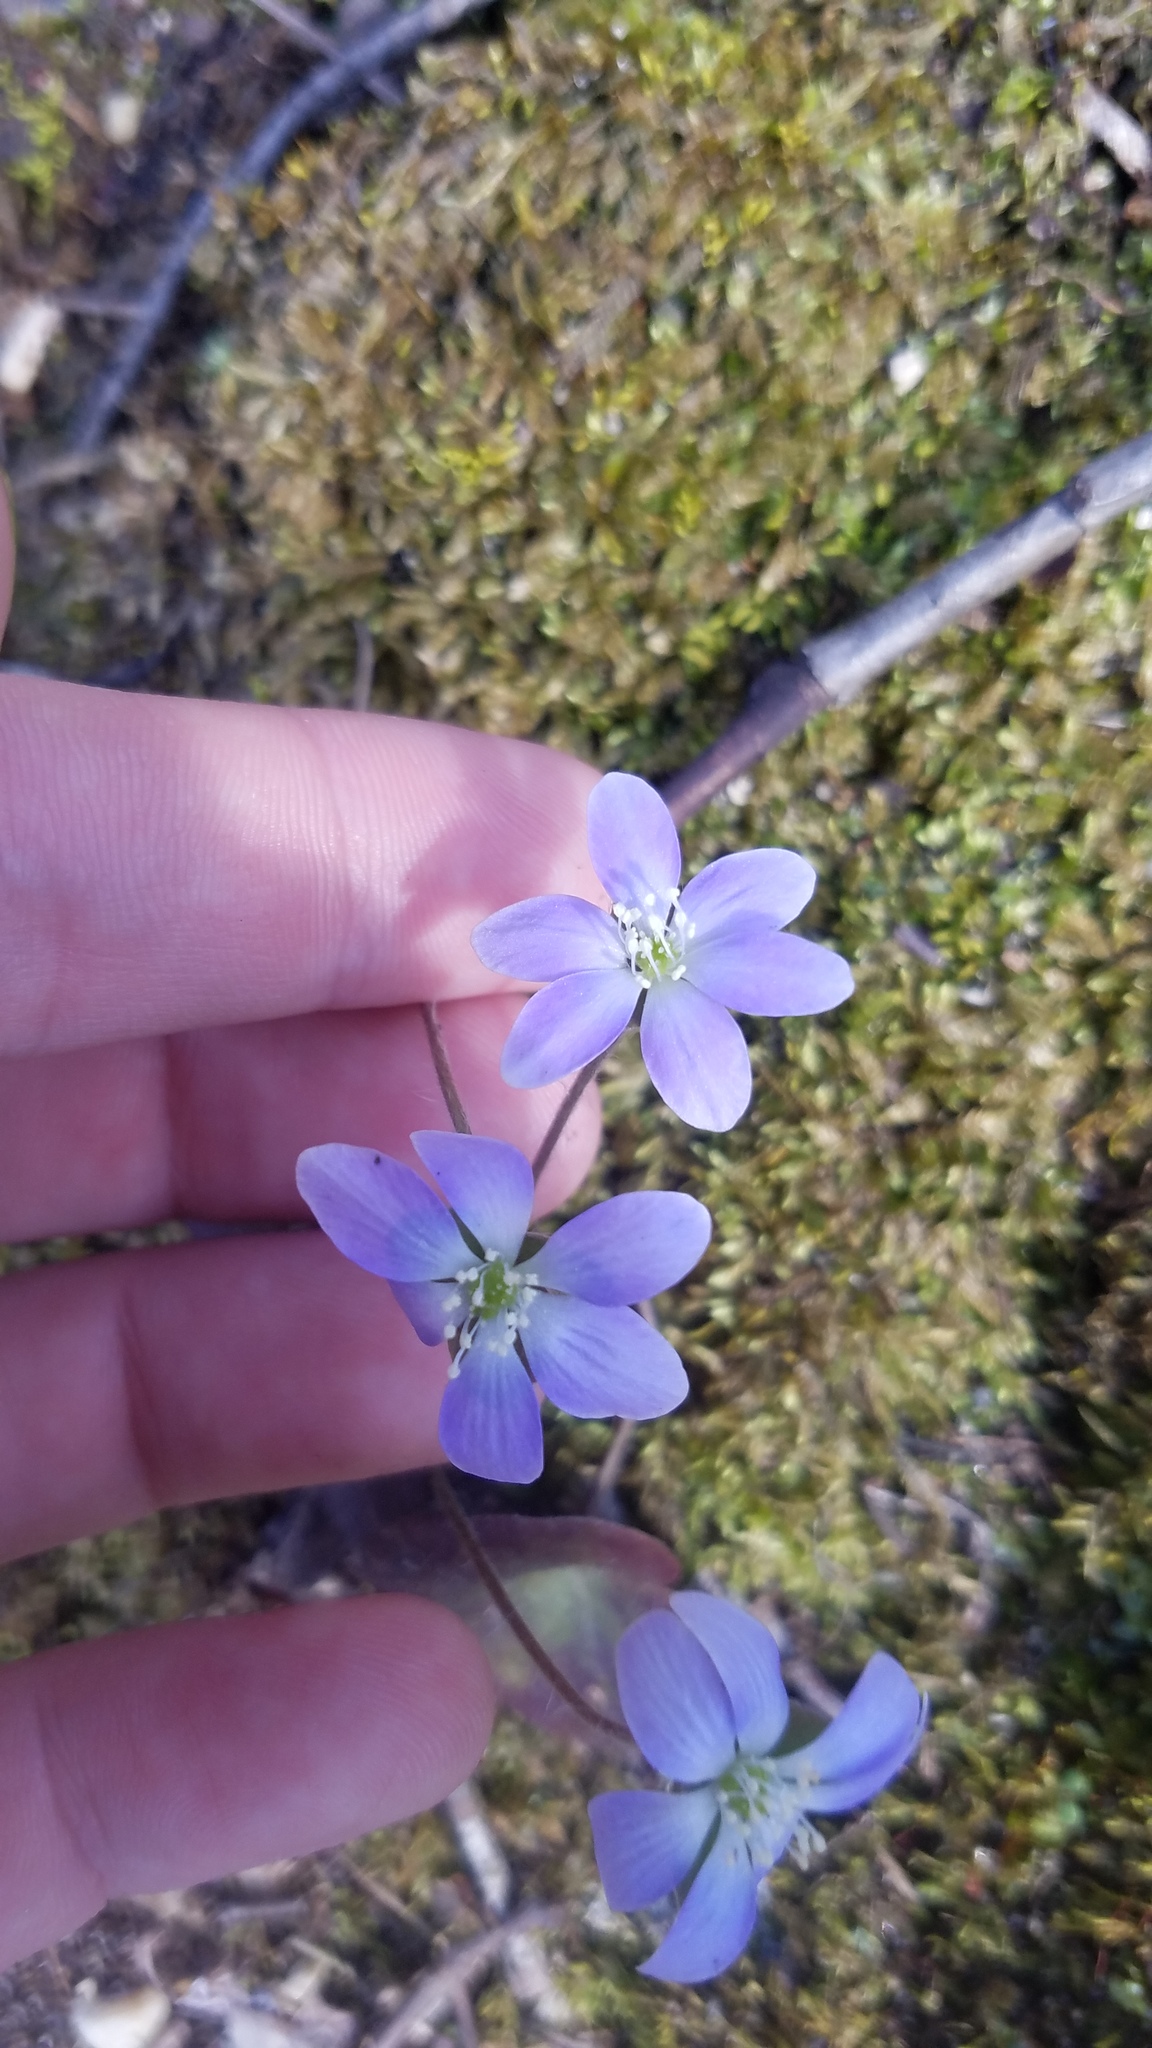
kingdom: Plantae
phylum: Tracheophyta
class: Magnoliopsida
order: Ranunculales
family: Ranunculaceae
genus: Hepatica
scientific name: Hepatica americana
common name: American hepatica
